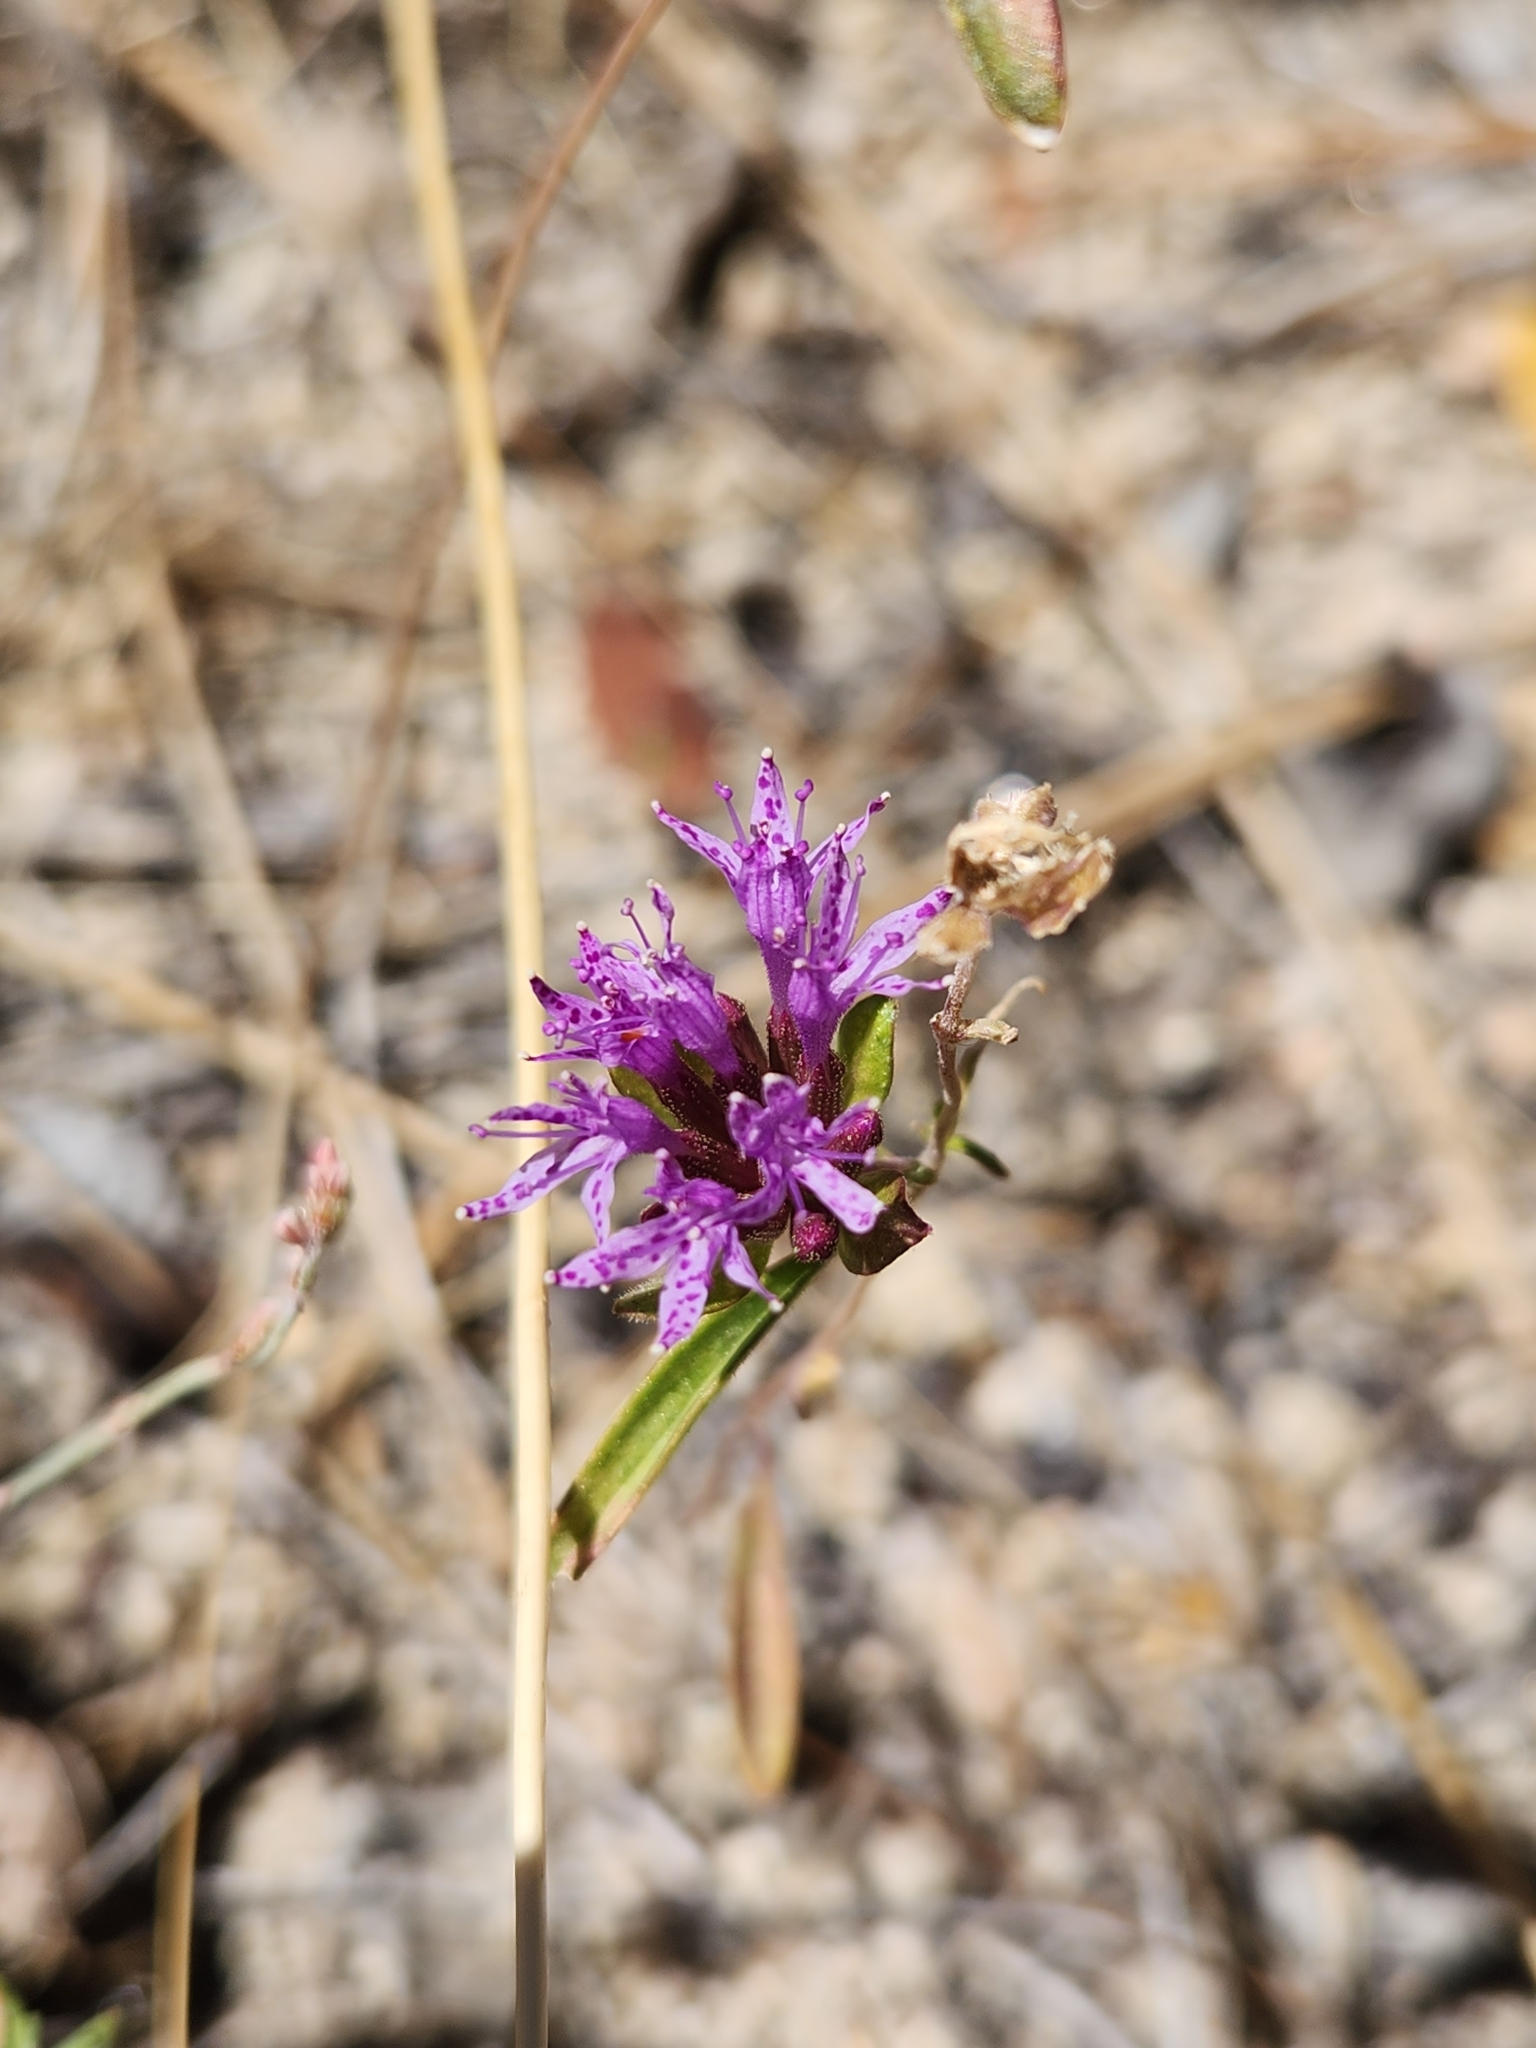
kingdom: Plantae
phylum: Tracheophyta
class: Magnoliopsida
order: Lamiales
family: Lamiaceae
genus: Monardella
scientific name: Monardella breweri
